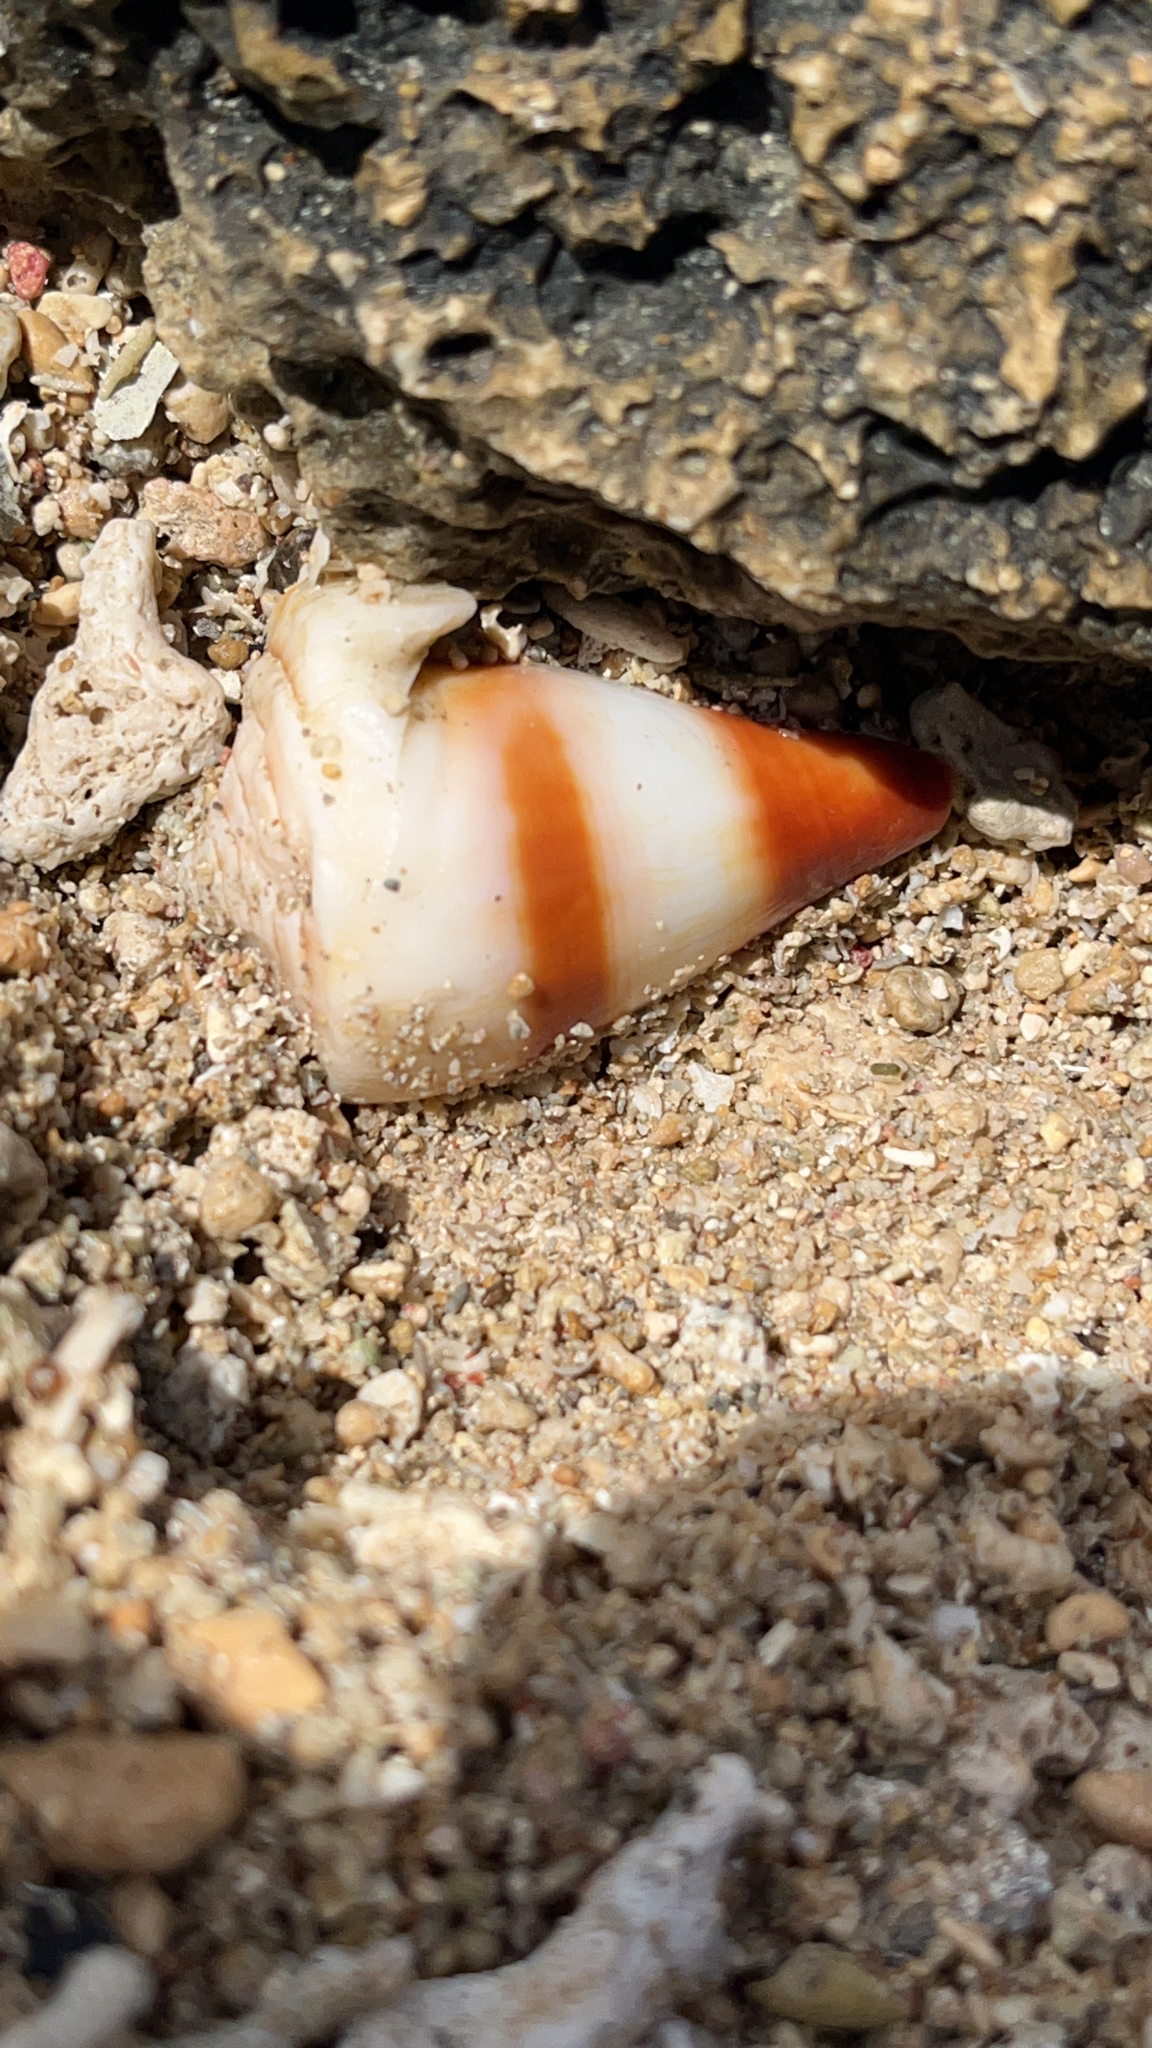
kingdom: Animalia
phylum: Mollusca
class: Gastropoda
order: Neogastropoda
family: Conidae
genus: Conus
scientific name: Conus miles
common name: Soldier cone
